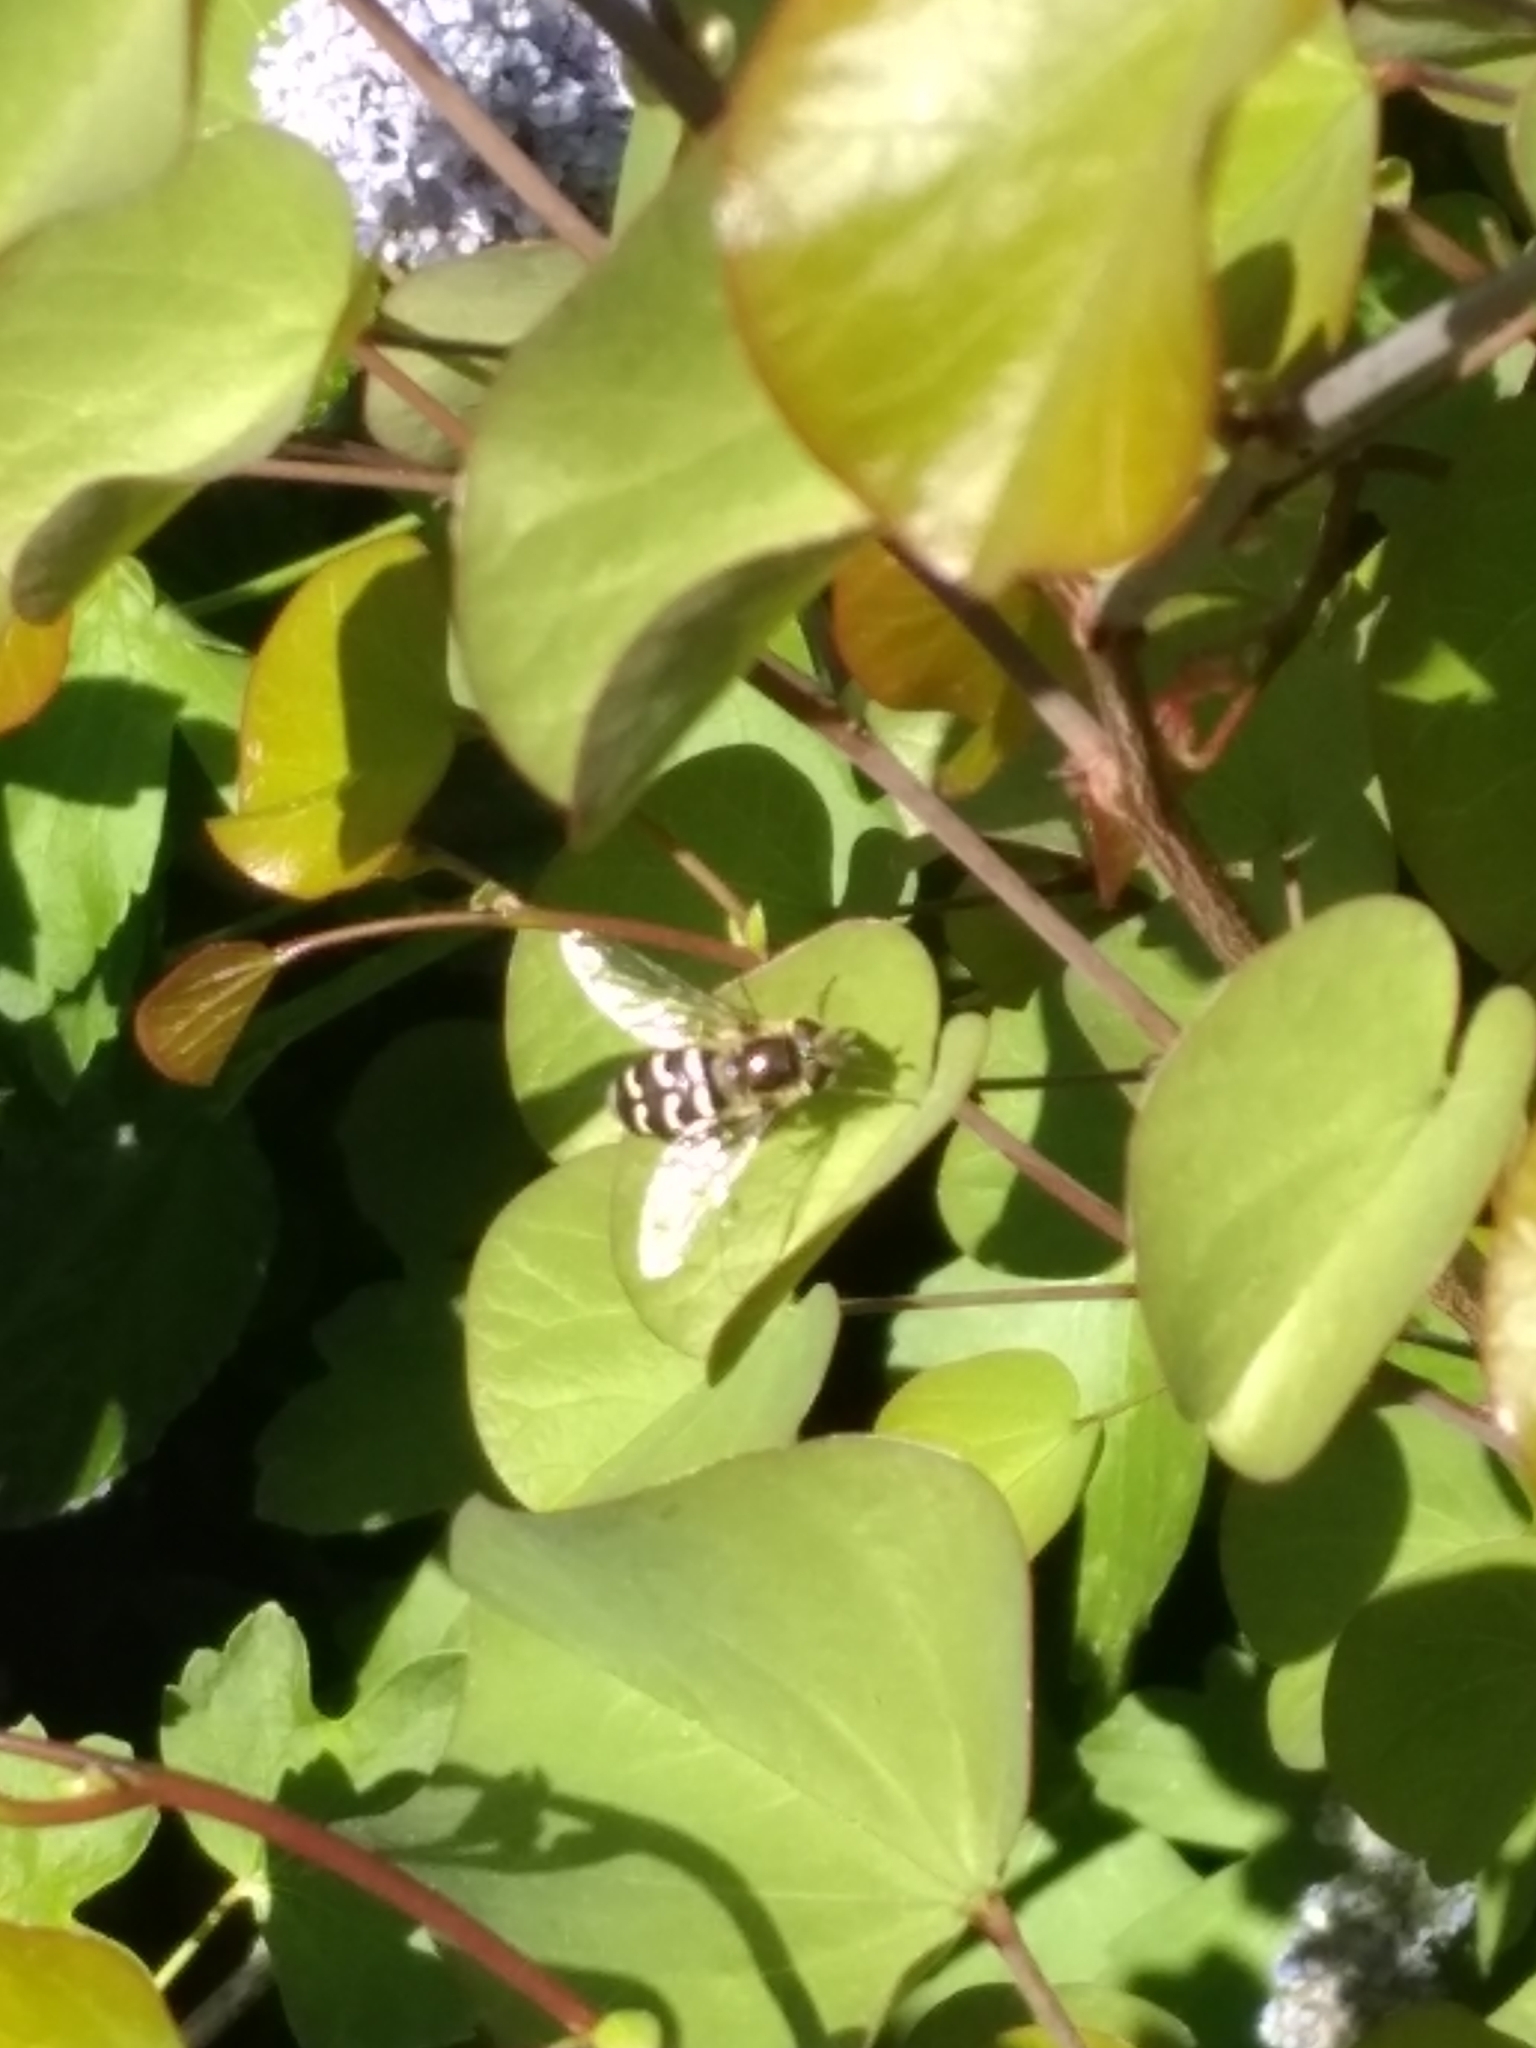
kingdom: Animalia
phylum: Arthropoda
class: Insecta
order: Diptera
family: Syrphidae
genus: Scaeva
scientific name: Scaeva affinis
